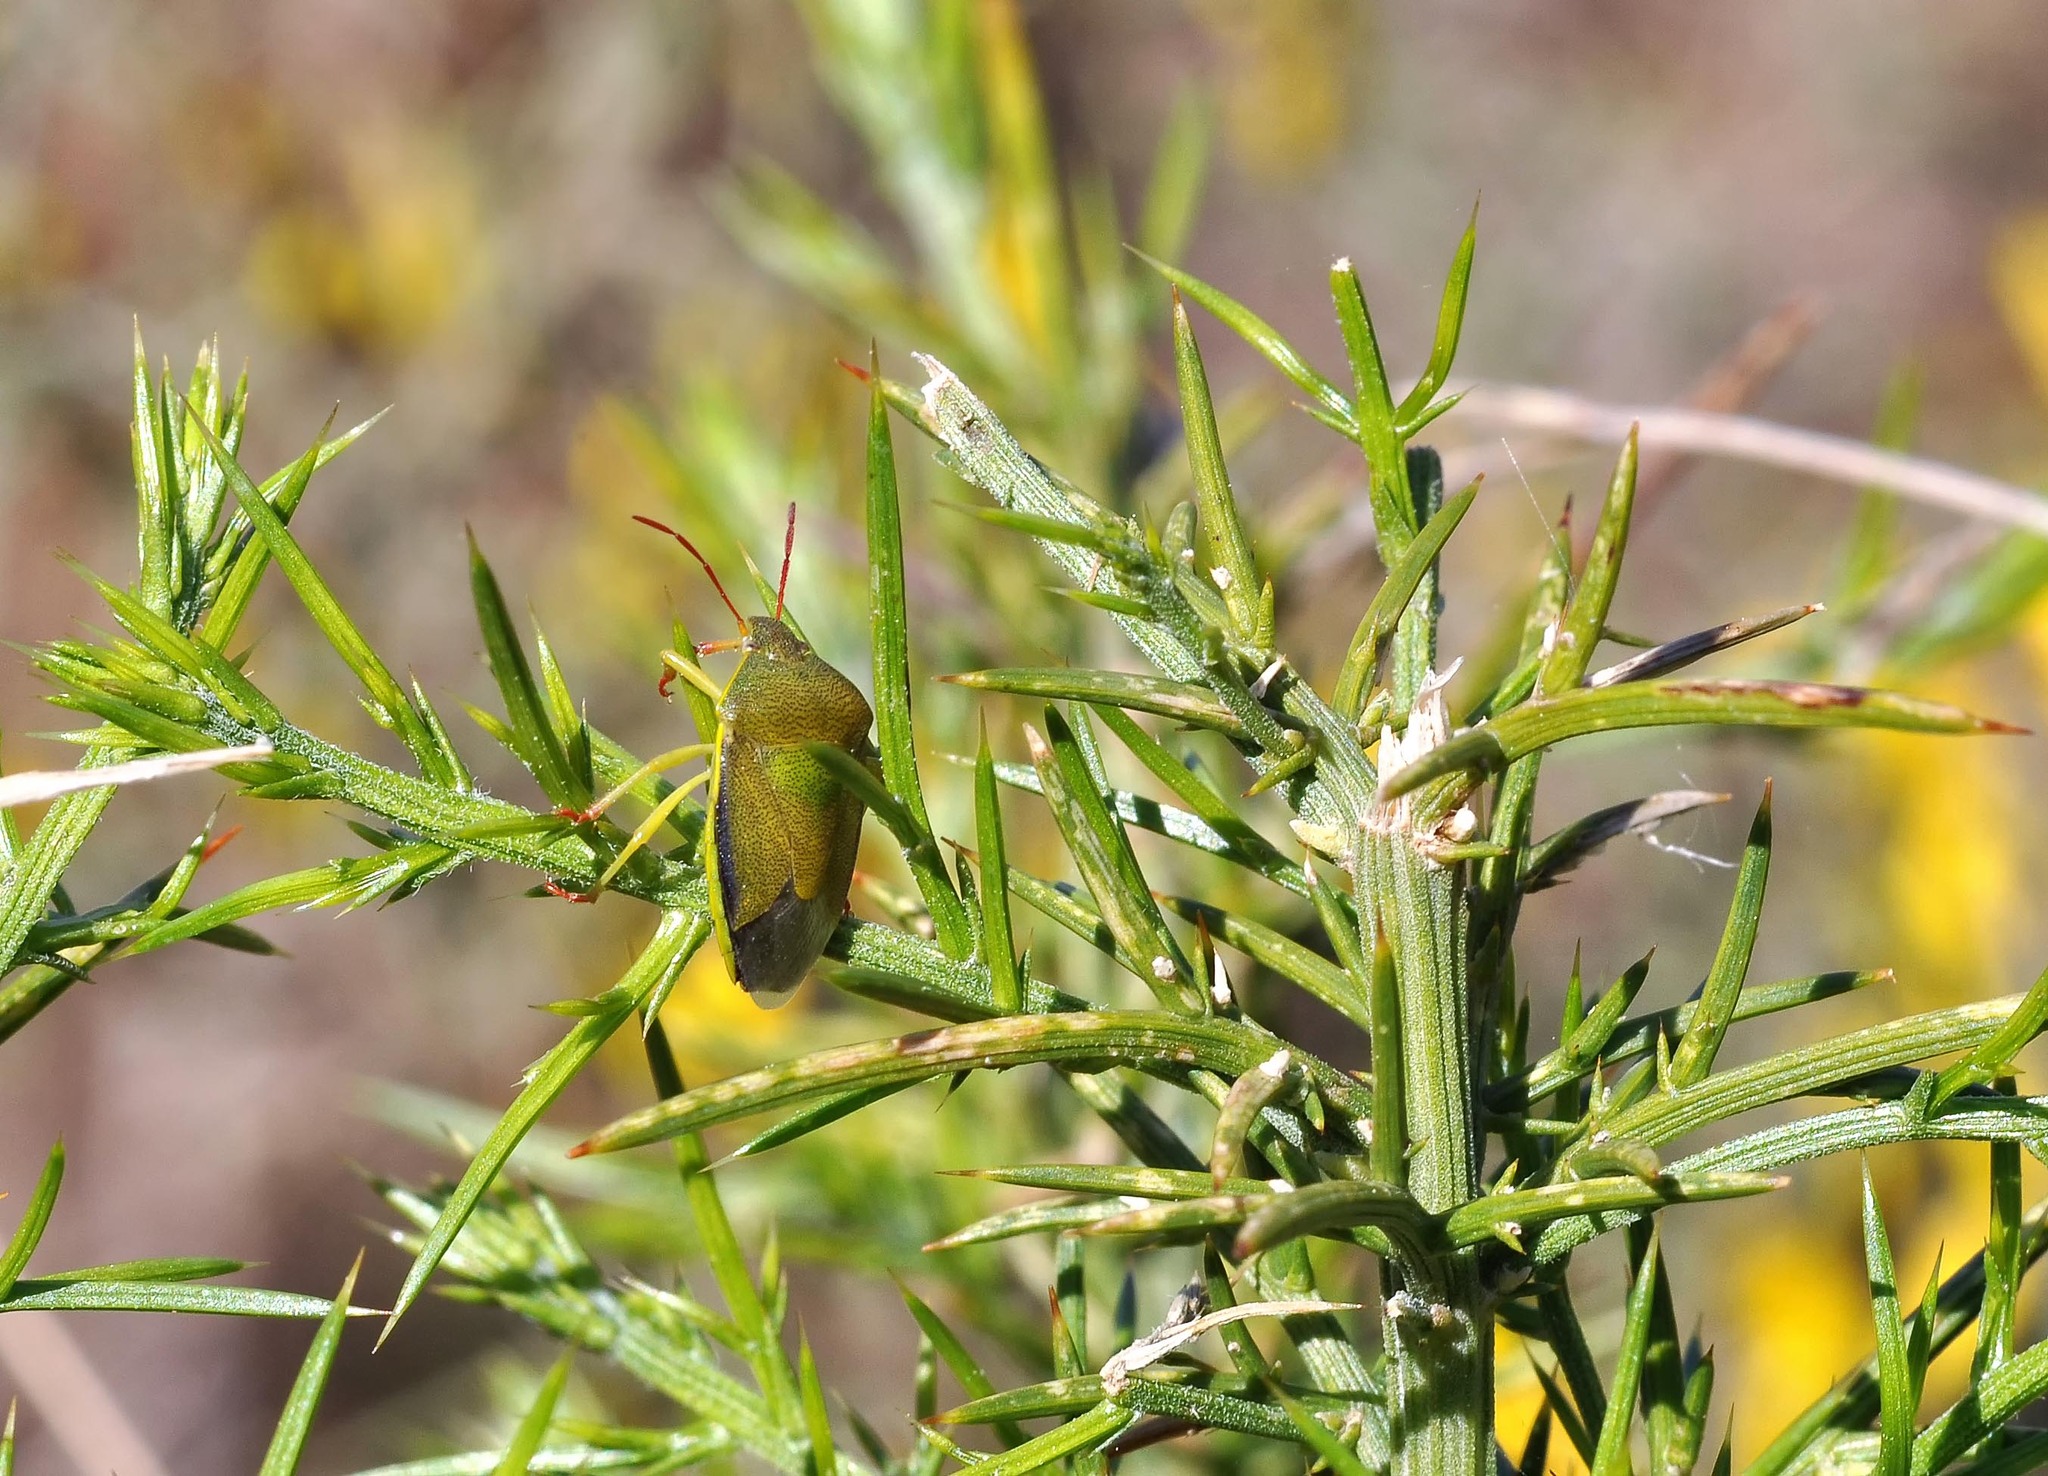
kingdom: Animalia
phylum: Arthropoda
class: Insecta
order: Hemiptera
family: Pentatomidae
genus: Piezodorus
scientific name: Piezodorus lituratus
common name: Stink bug
